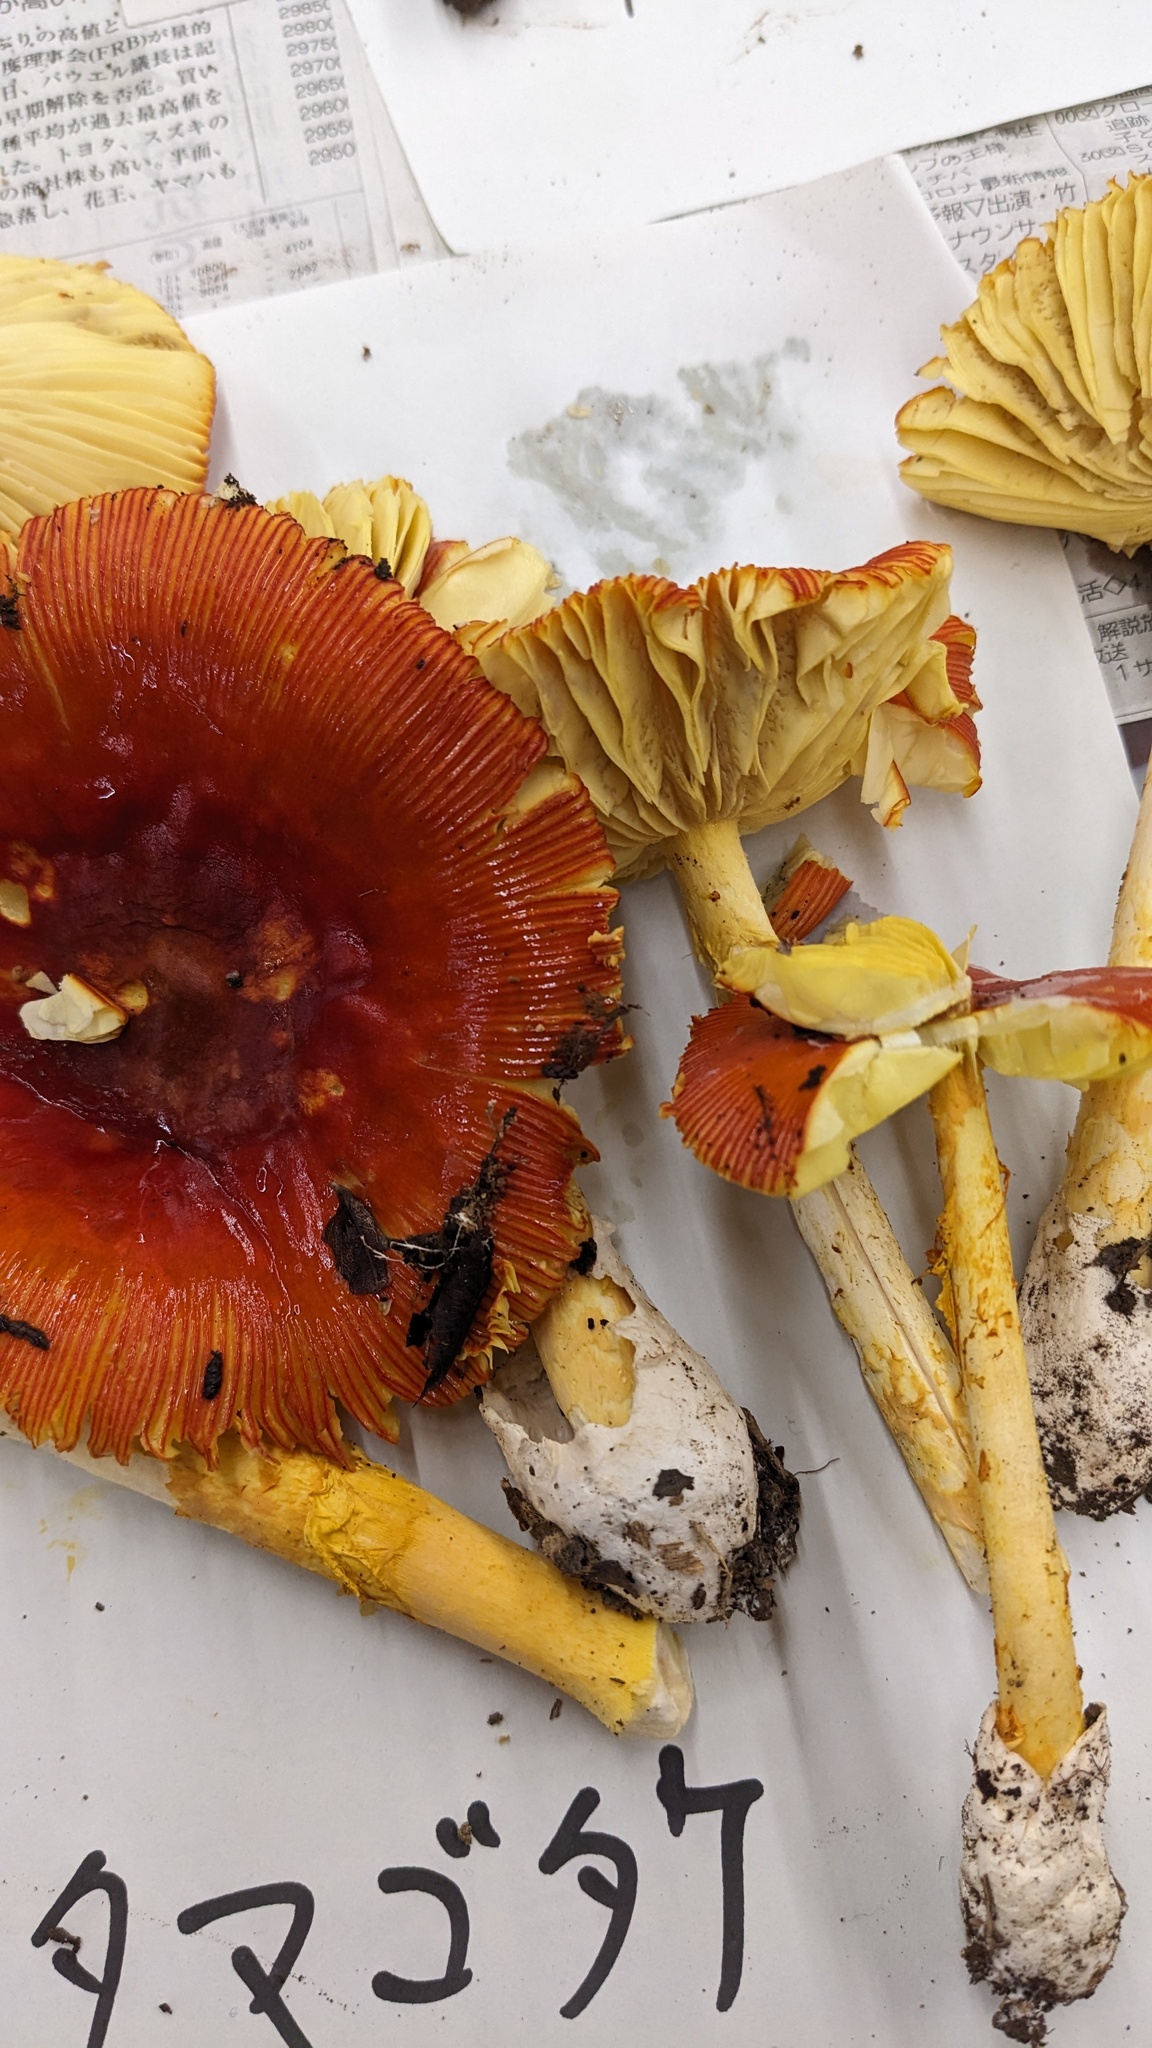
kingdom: Fungi
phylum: Basidiomycota
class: Agaricomycetes
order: Agaricales
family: Amanitaceae
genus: Amanita
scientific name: Amanita caesareoides
